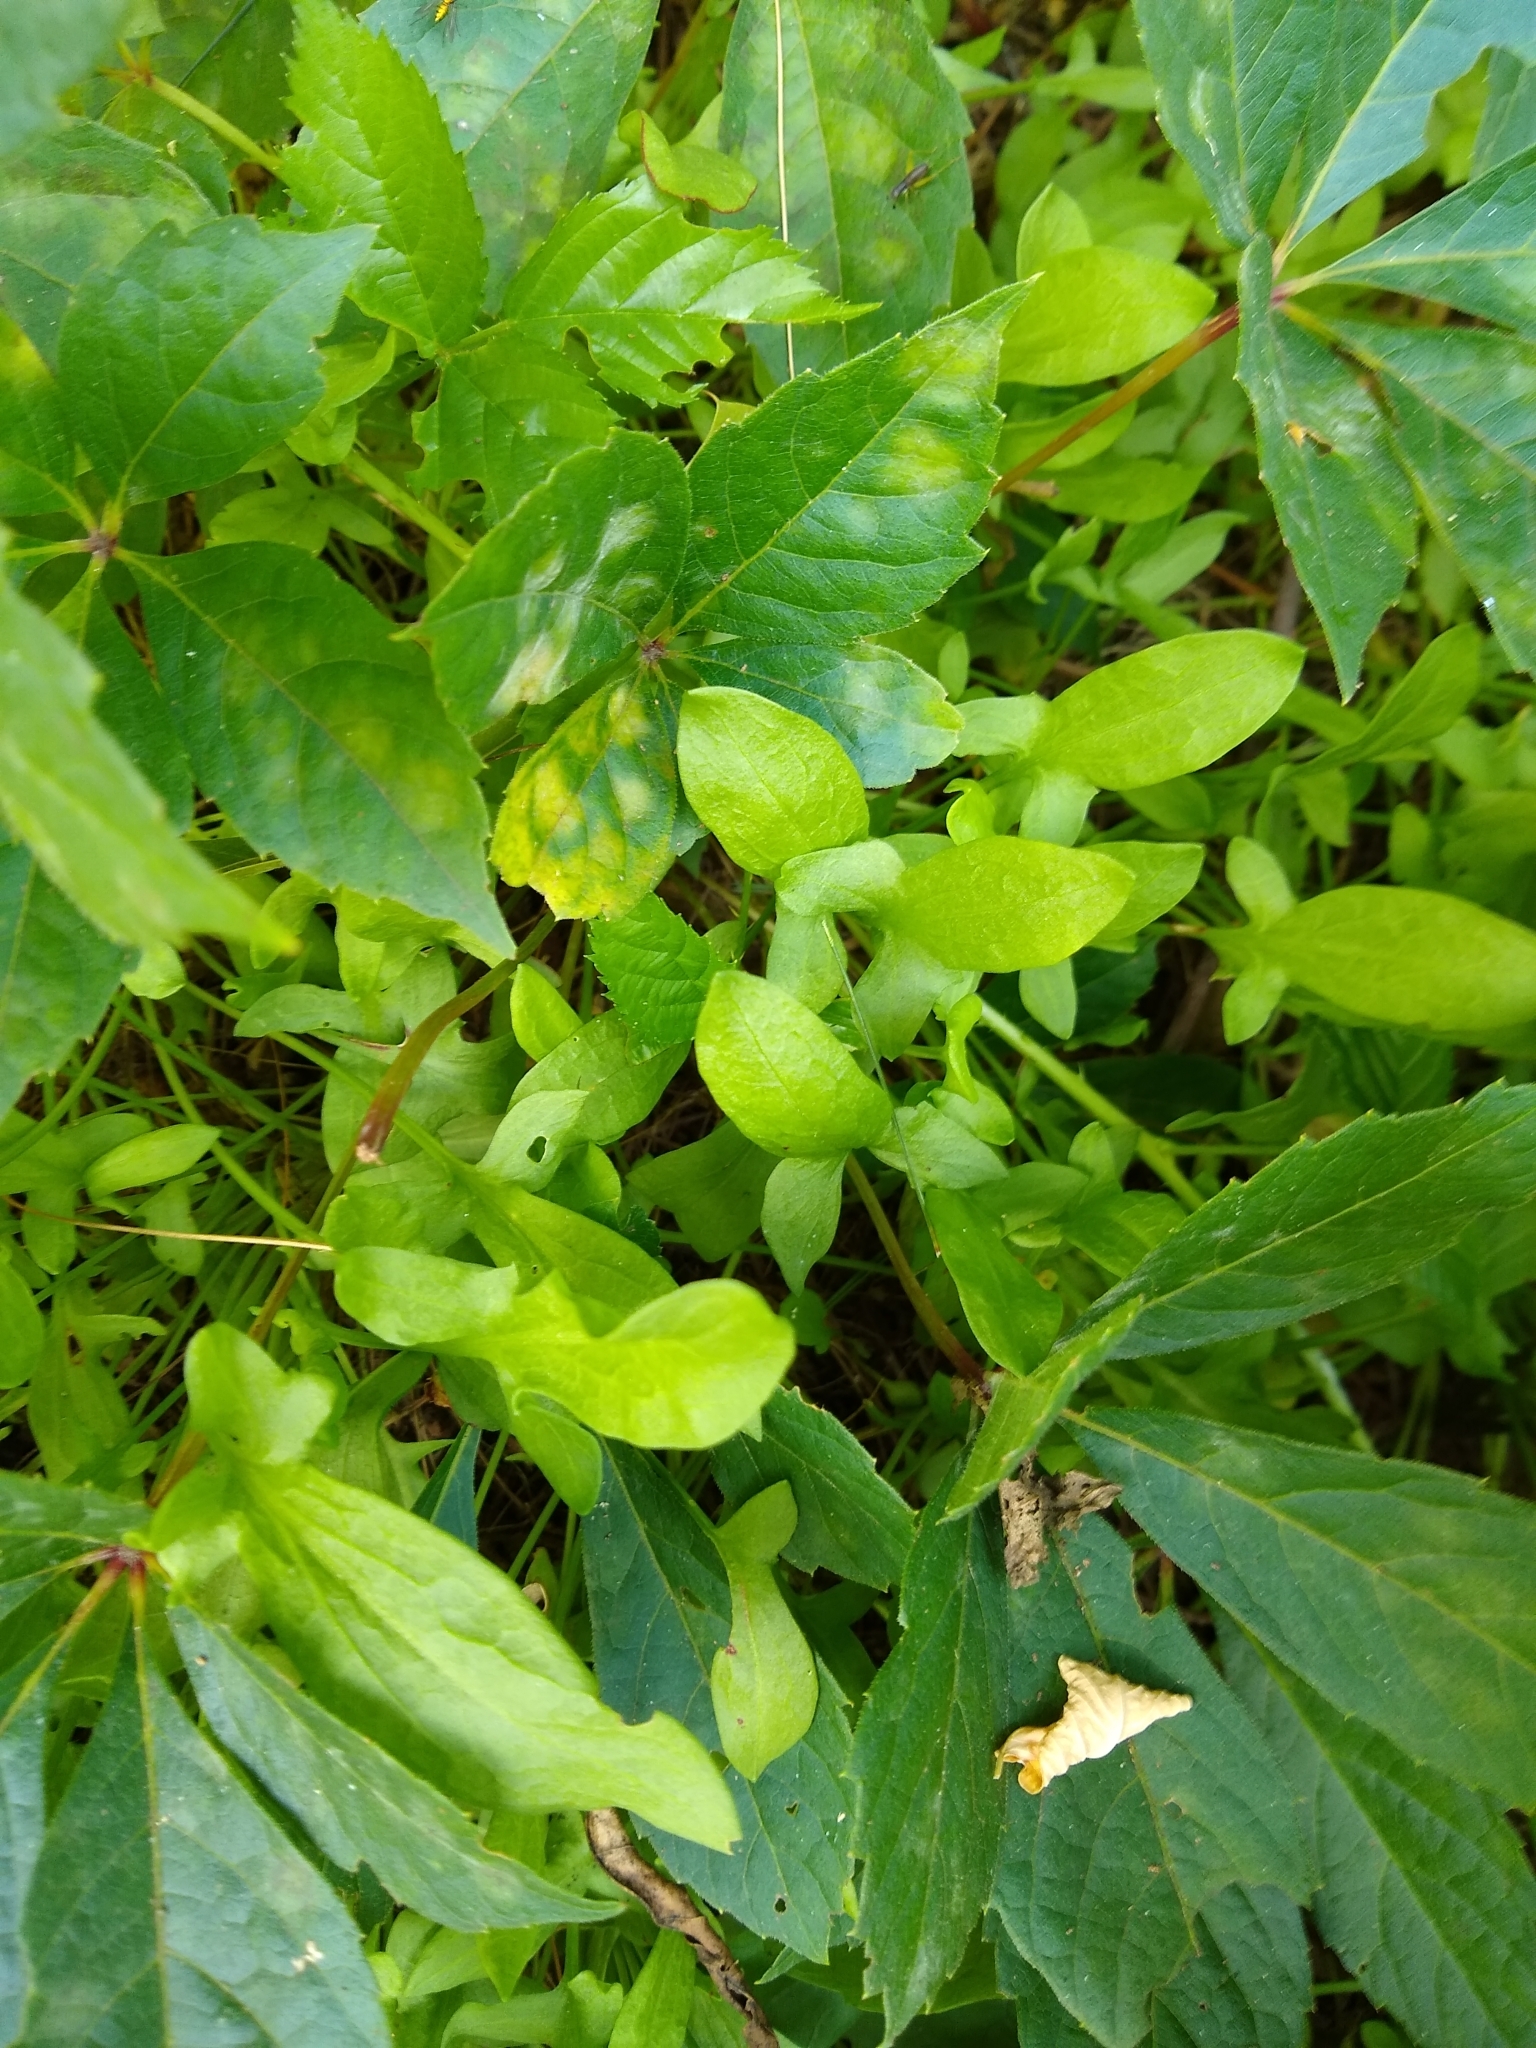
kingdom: Plantae
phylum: Tracheophyta
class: Magnoliopsida
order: Caryophyllales
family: Polygonaceae
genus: Rumex
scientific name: Rumex acetosella
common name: Common sheep sorrel
